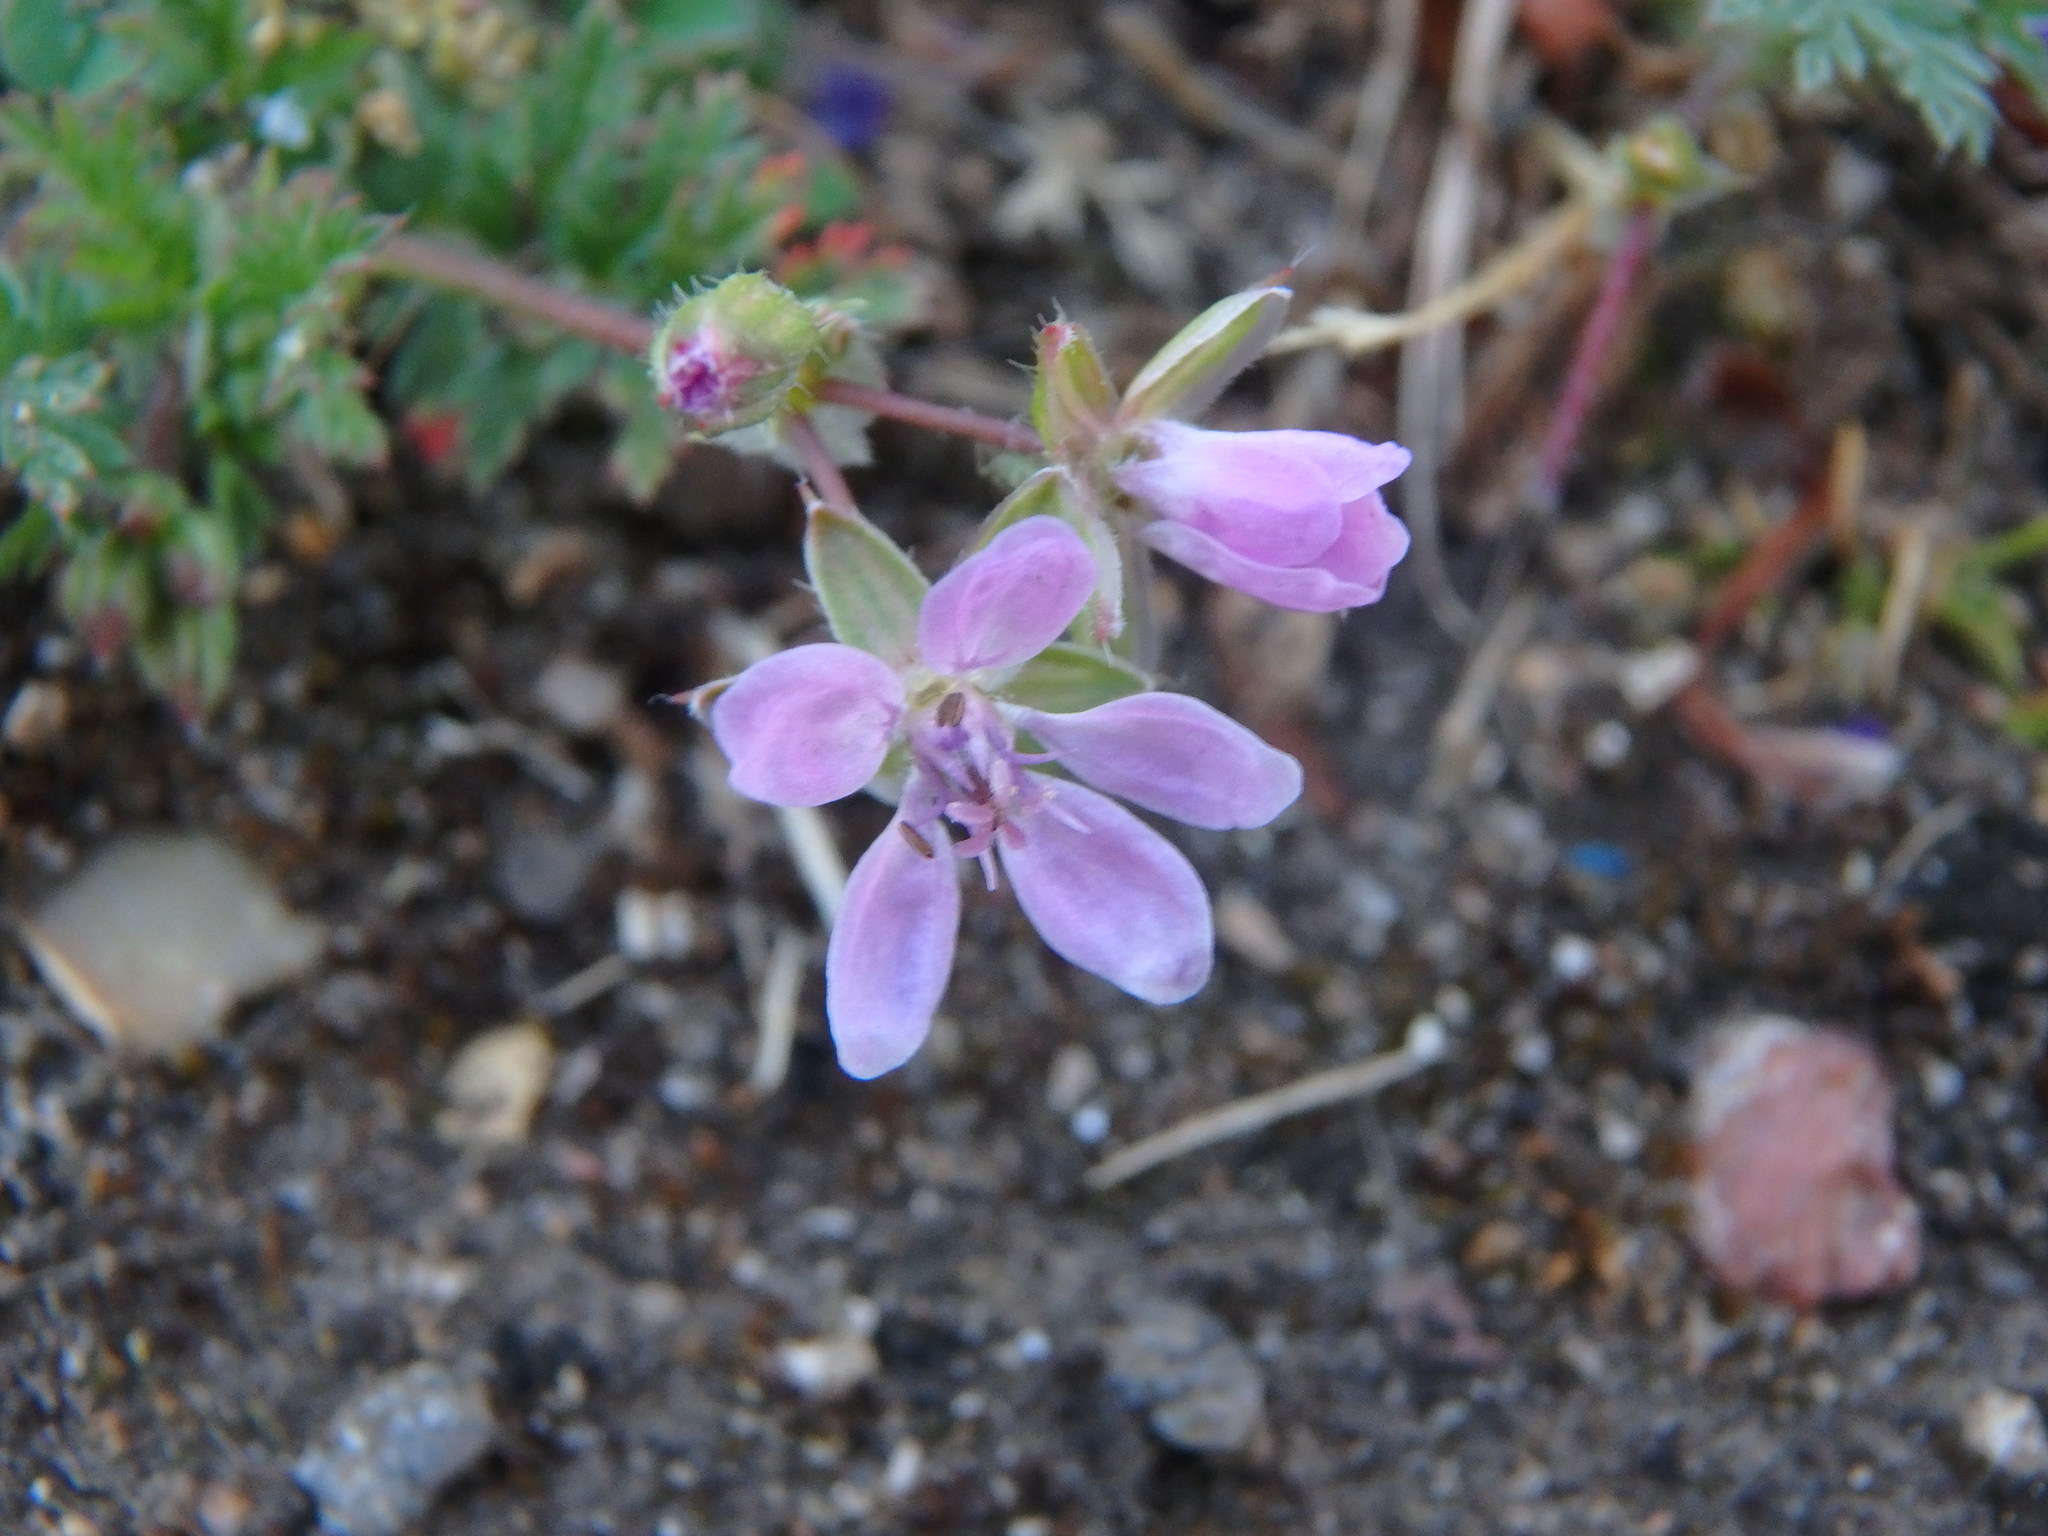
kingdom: Plantae
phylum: Tracheophyta
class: Magnoliopsida
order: Geraniales
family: Geraniaceae
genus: Erodium
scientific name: Erodium cicutarium
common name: Common stork's-bill
